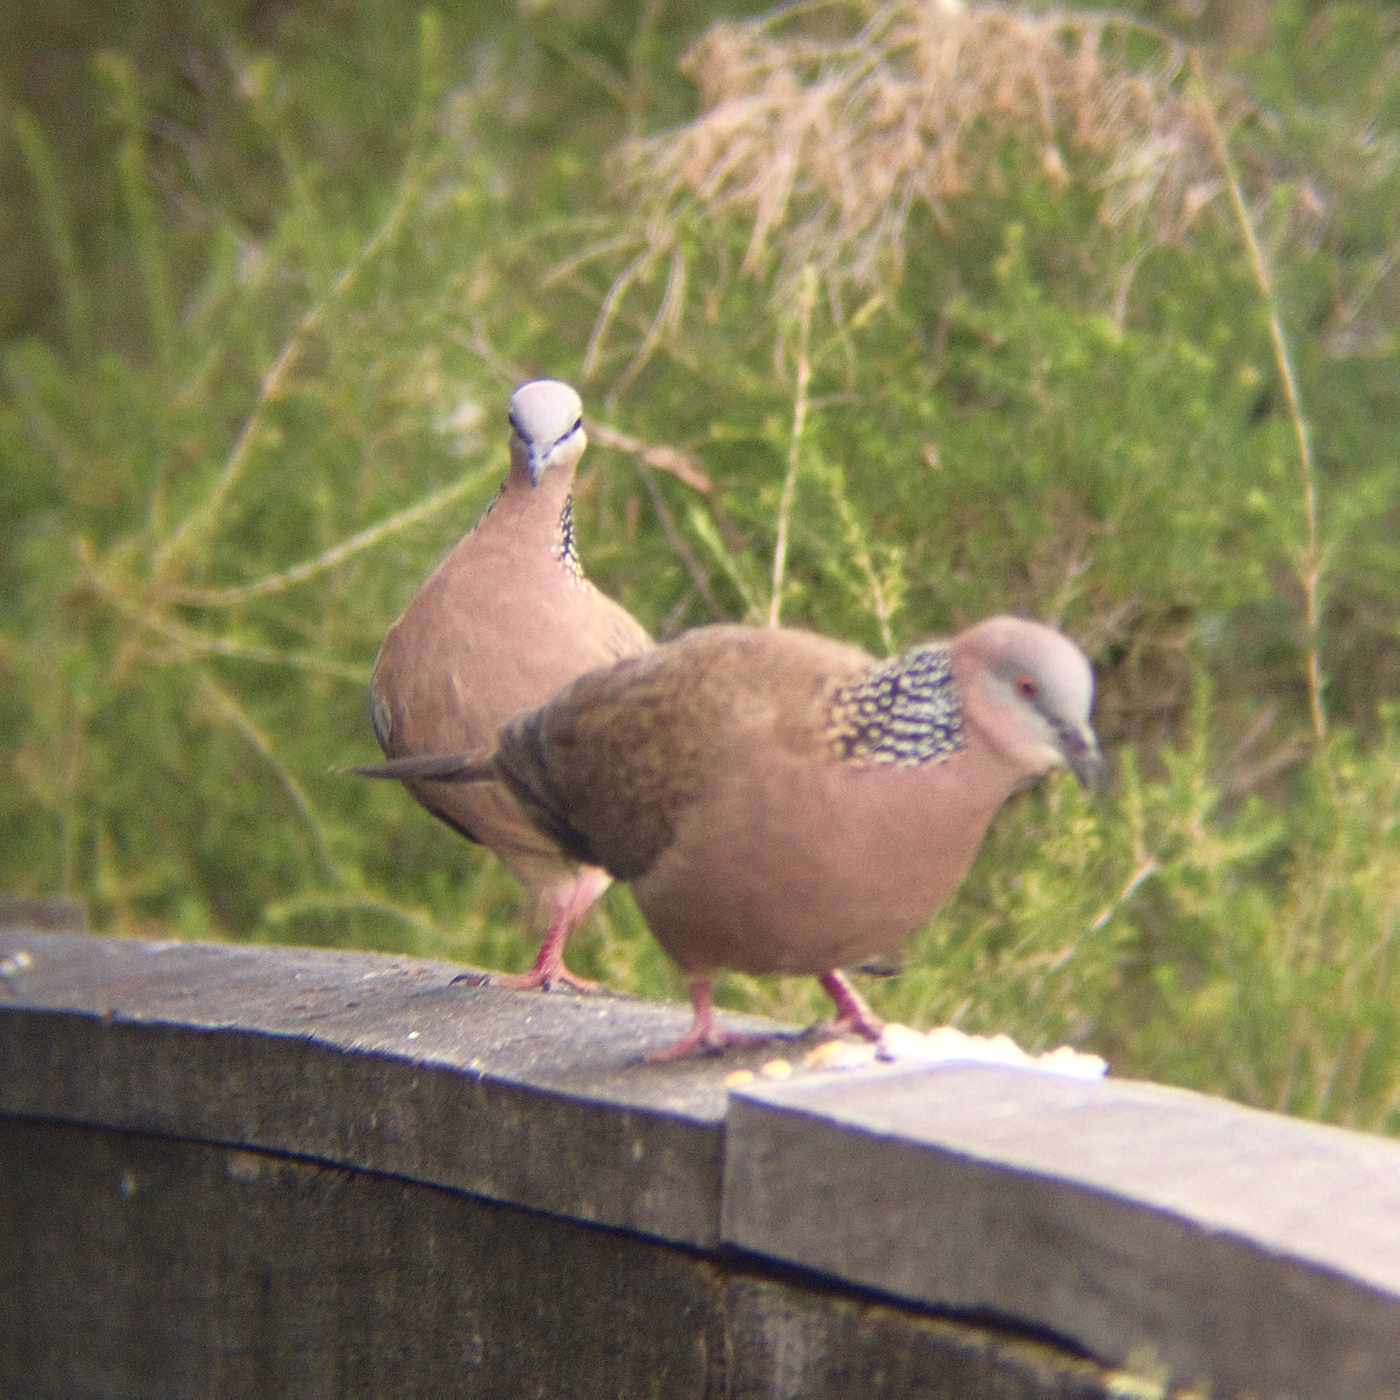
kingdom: Animalia
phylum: Chordata
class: Aves
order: Columbiformes
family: Columbidae
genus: Spilopelia
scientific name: Spilopelia chinensis
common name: Spotted dove
